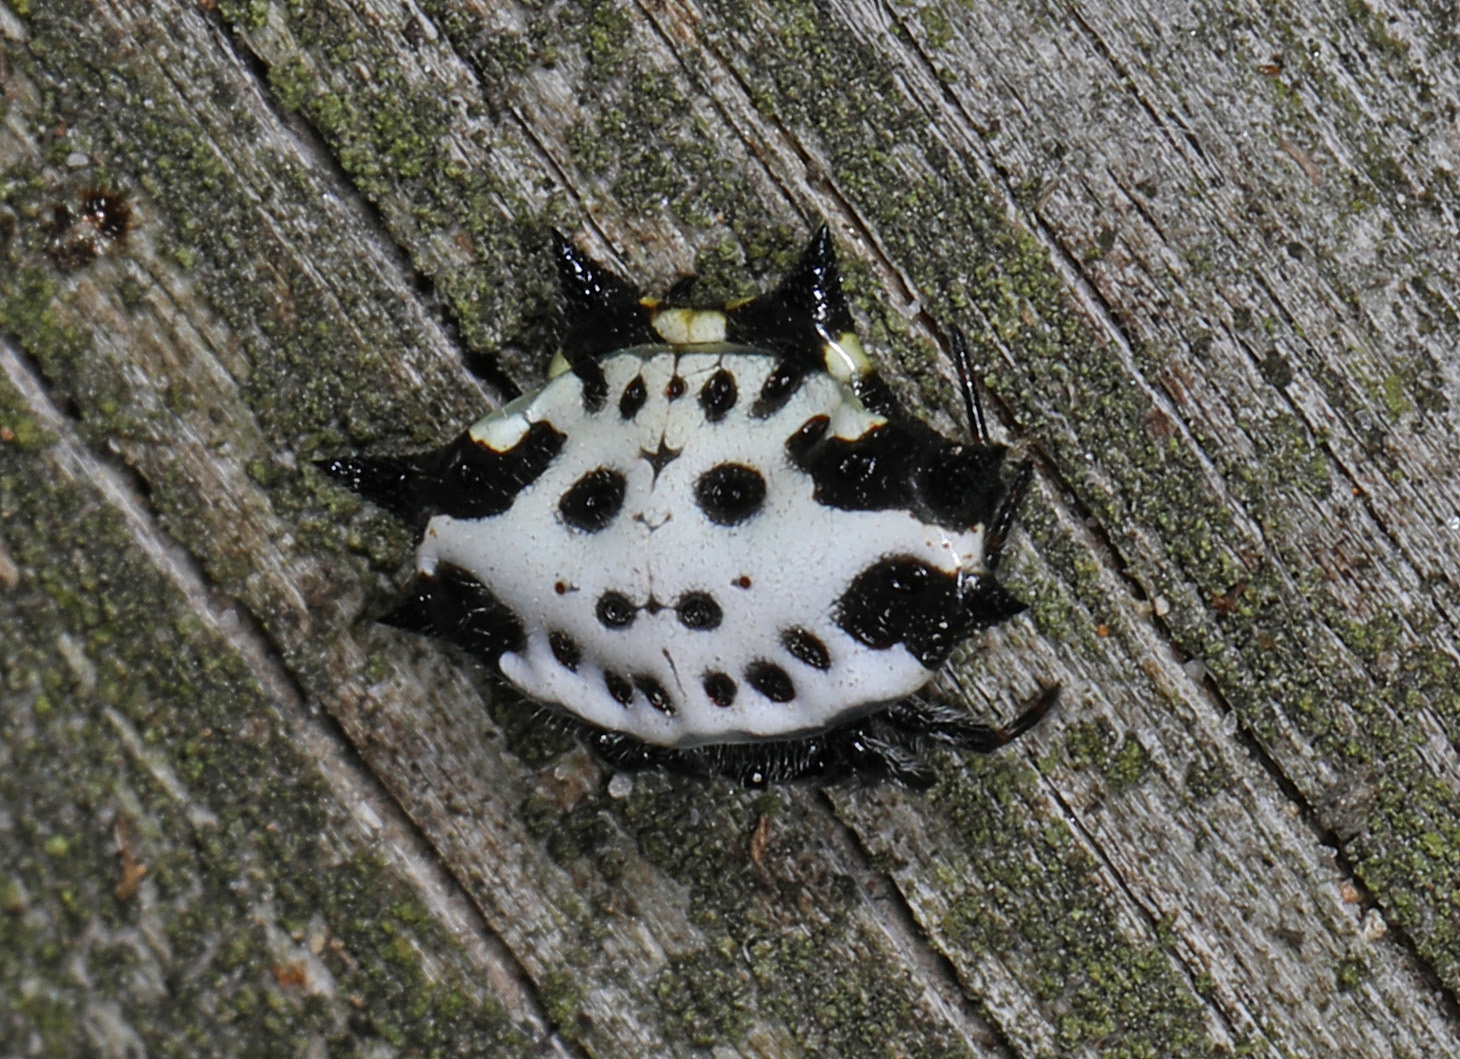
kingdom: Animalia
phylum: Arthropoda
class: Arachnida
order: Araneae
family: Araneidae
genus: Gasteracantha
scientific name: Gasteracantha cancriformis
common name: Orb weavers
